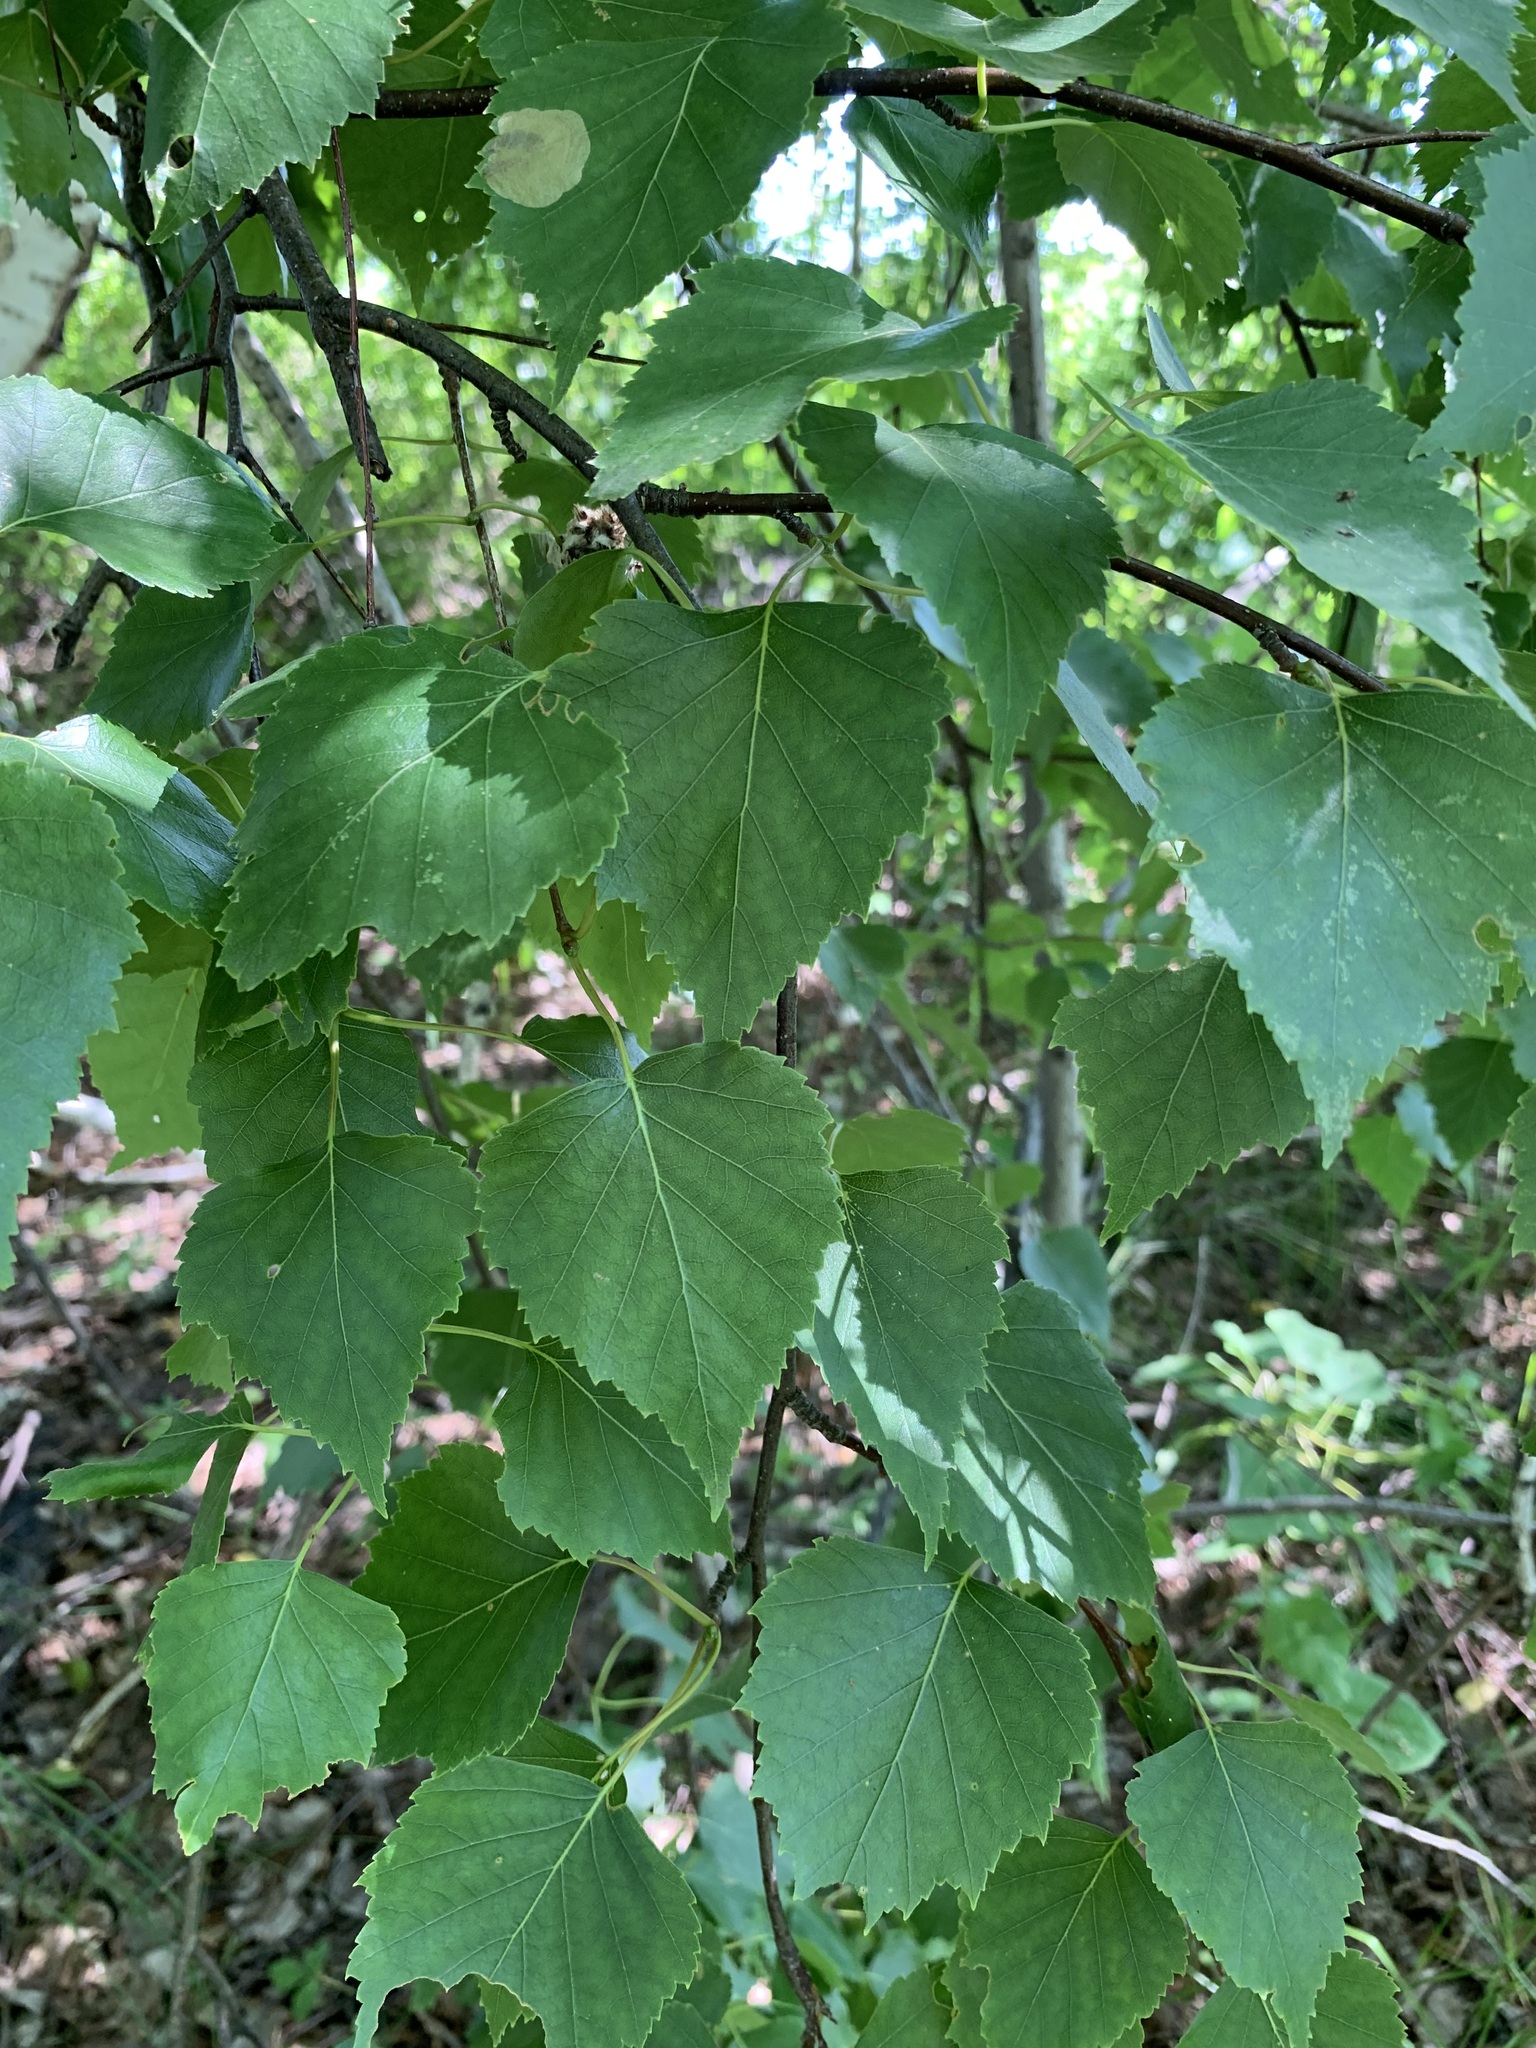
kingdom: Plantae
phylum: Tracheophyta
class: Magnoliopsida
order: Fagales
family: Betulaceae
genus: Betula
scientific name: Betula pendula
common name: Silver birch
